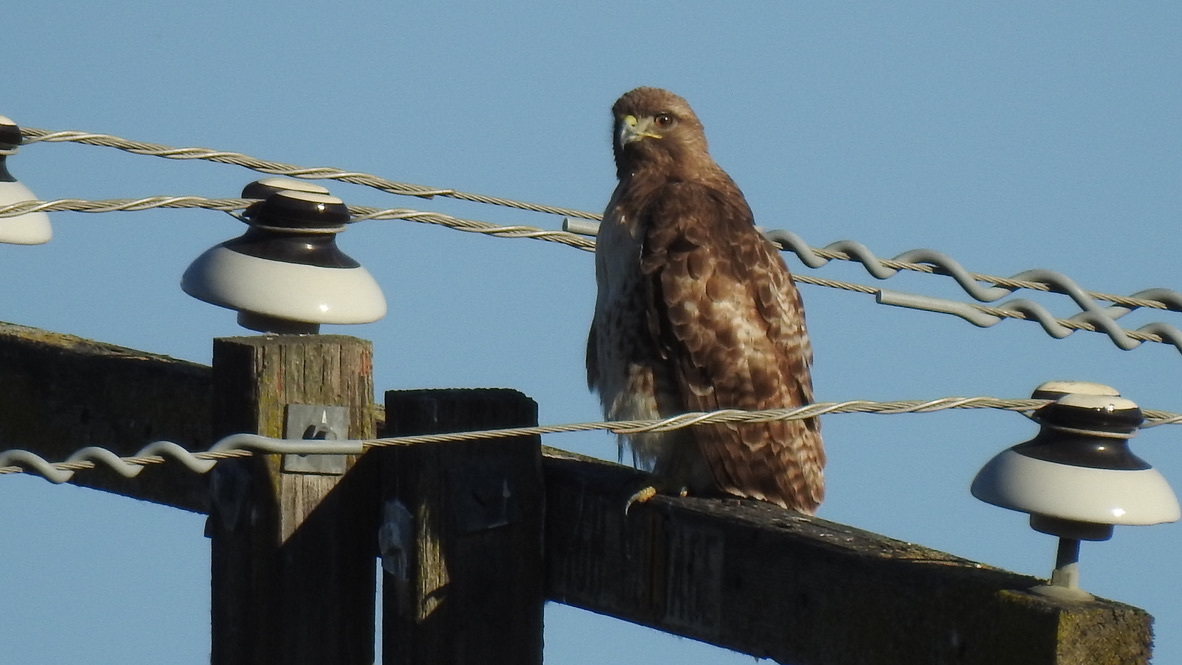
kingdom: Animalia
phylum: Chordata
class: Aves
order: Accipitriformes
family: Accipitridae
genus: Buteo
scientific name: Buteo jamaicensis
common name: Red-tailed hawk
